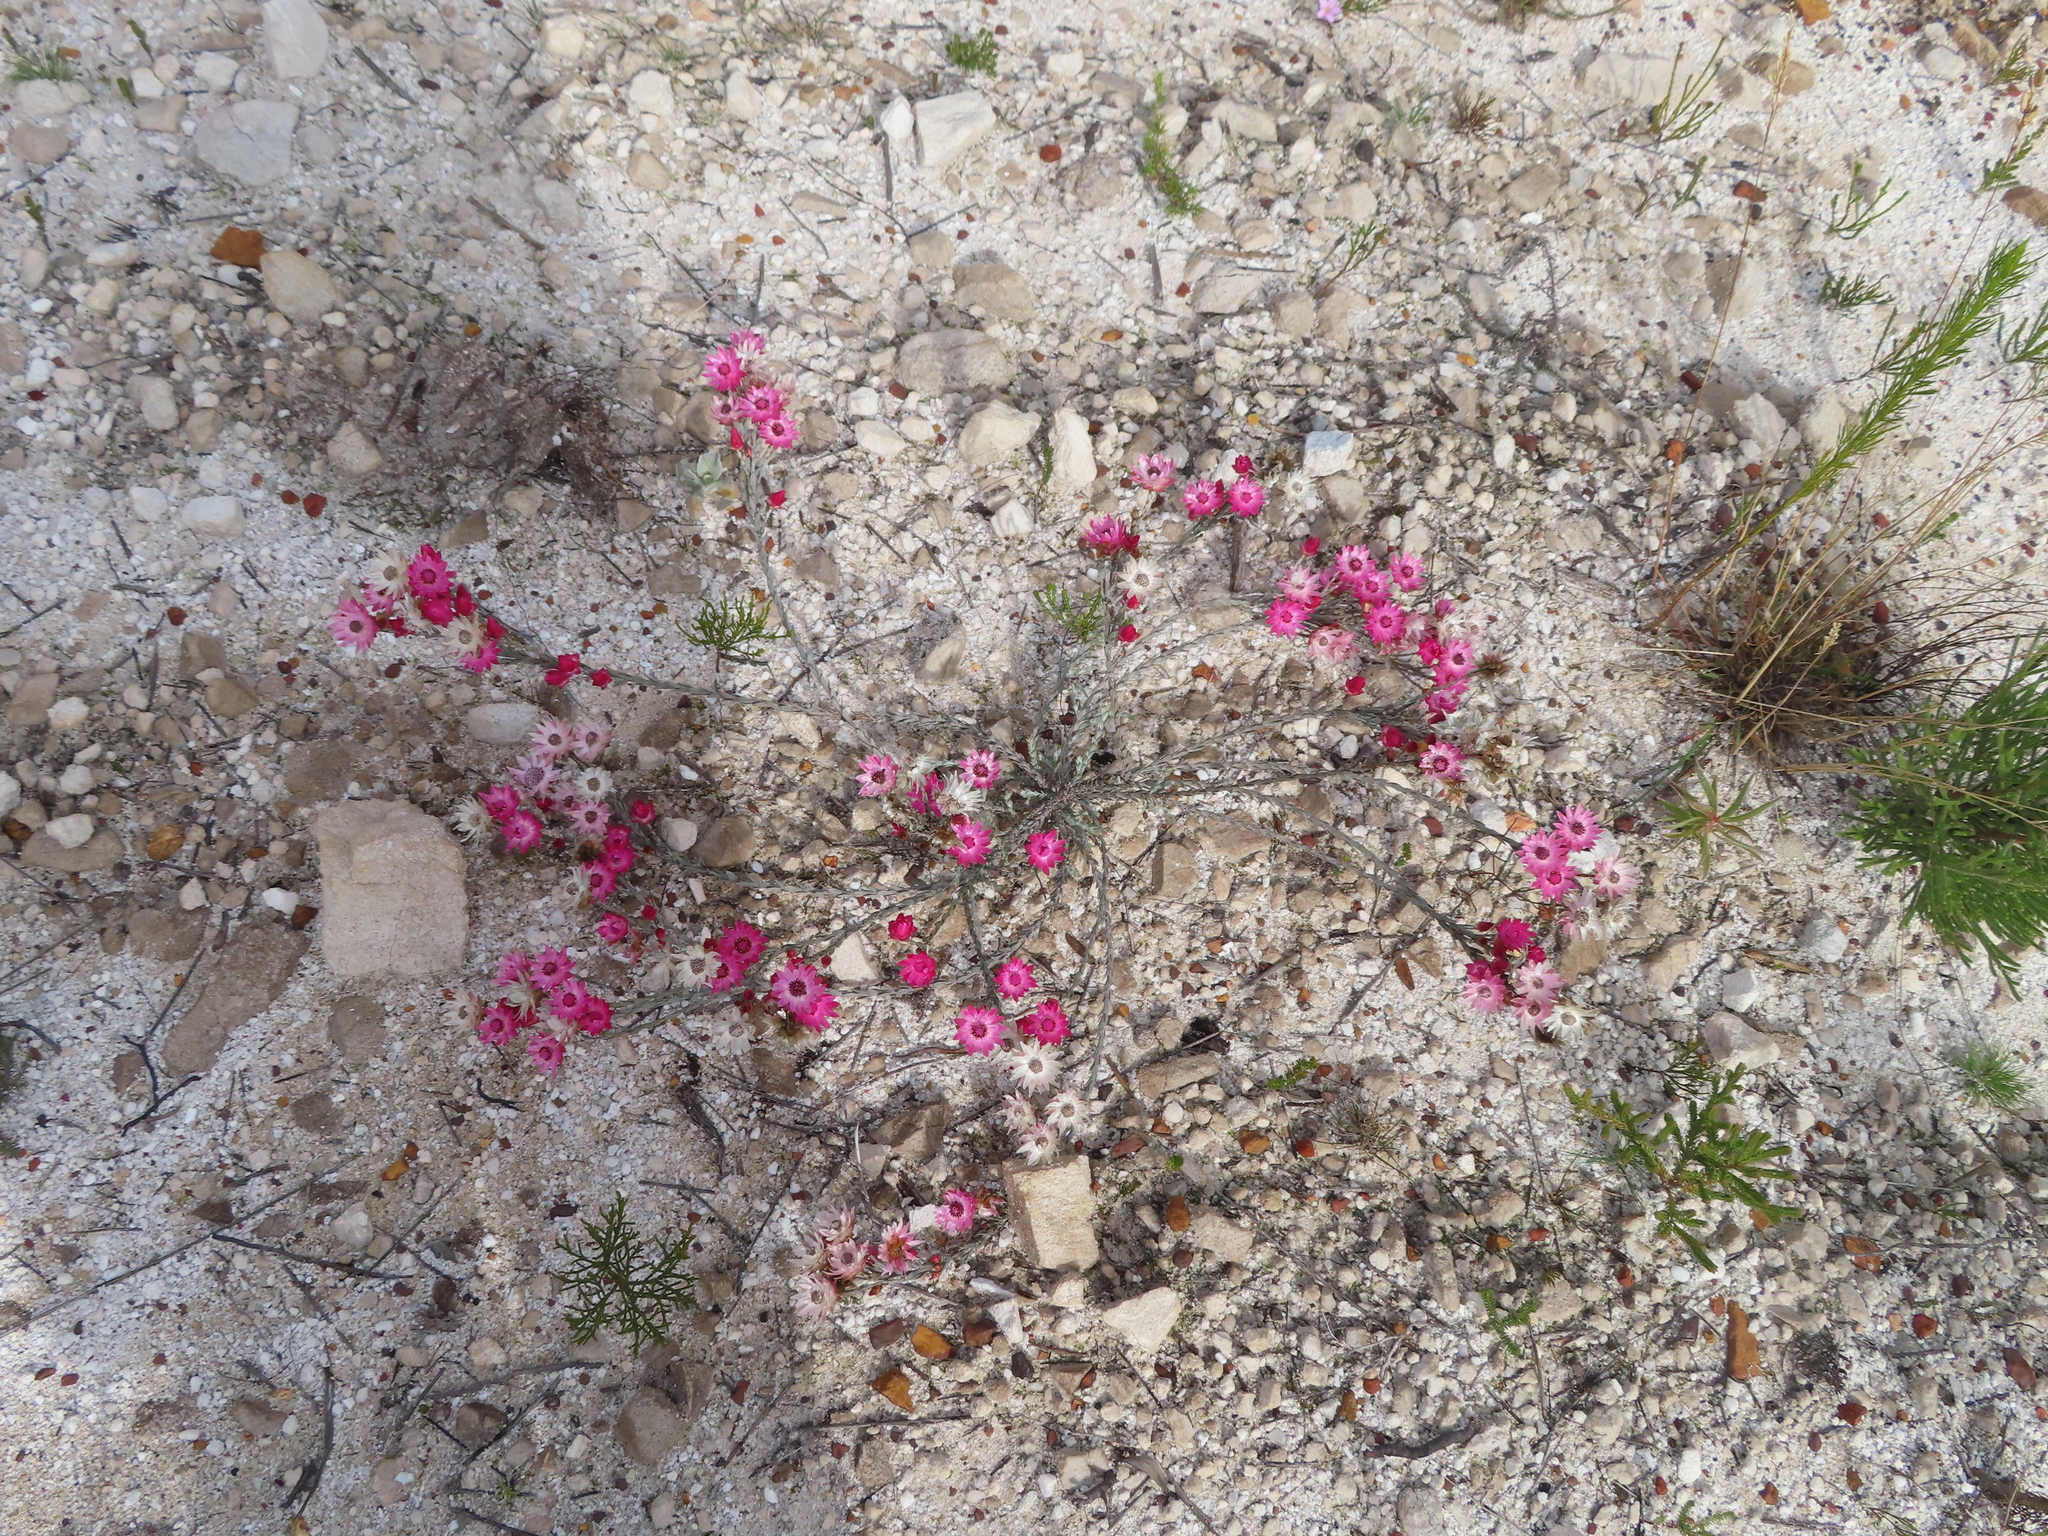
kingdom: Plantae
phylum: Tracheophyta
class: Magnoliopsida
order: Asterales
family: Asteraceae
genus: Syncarpha
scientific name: Syncarpha canescens
